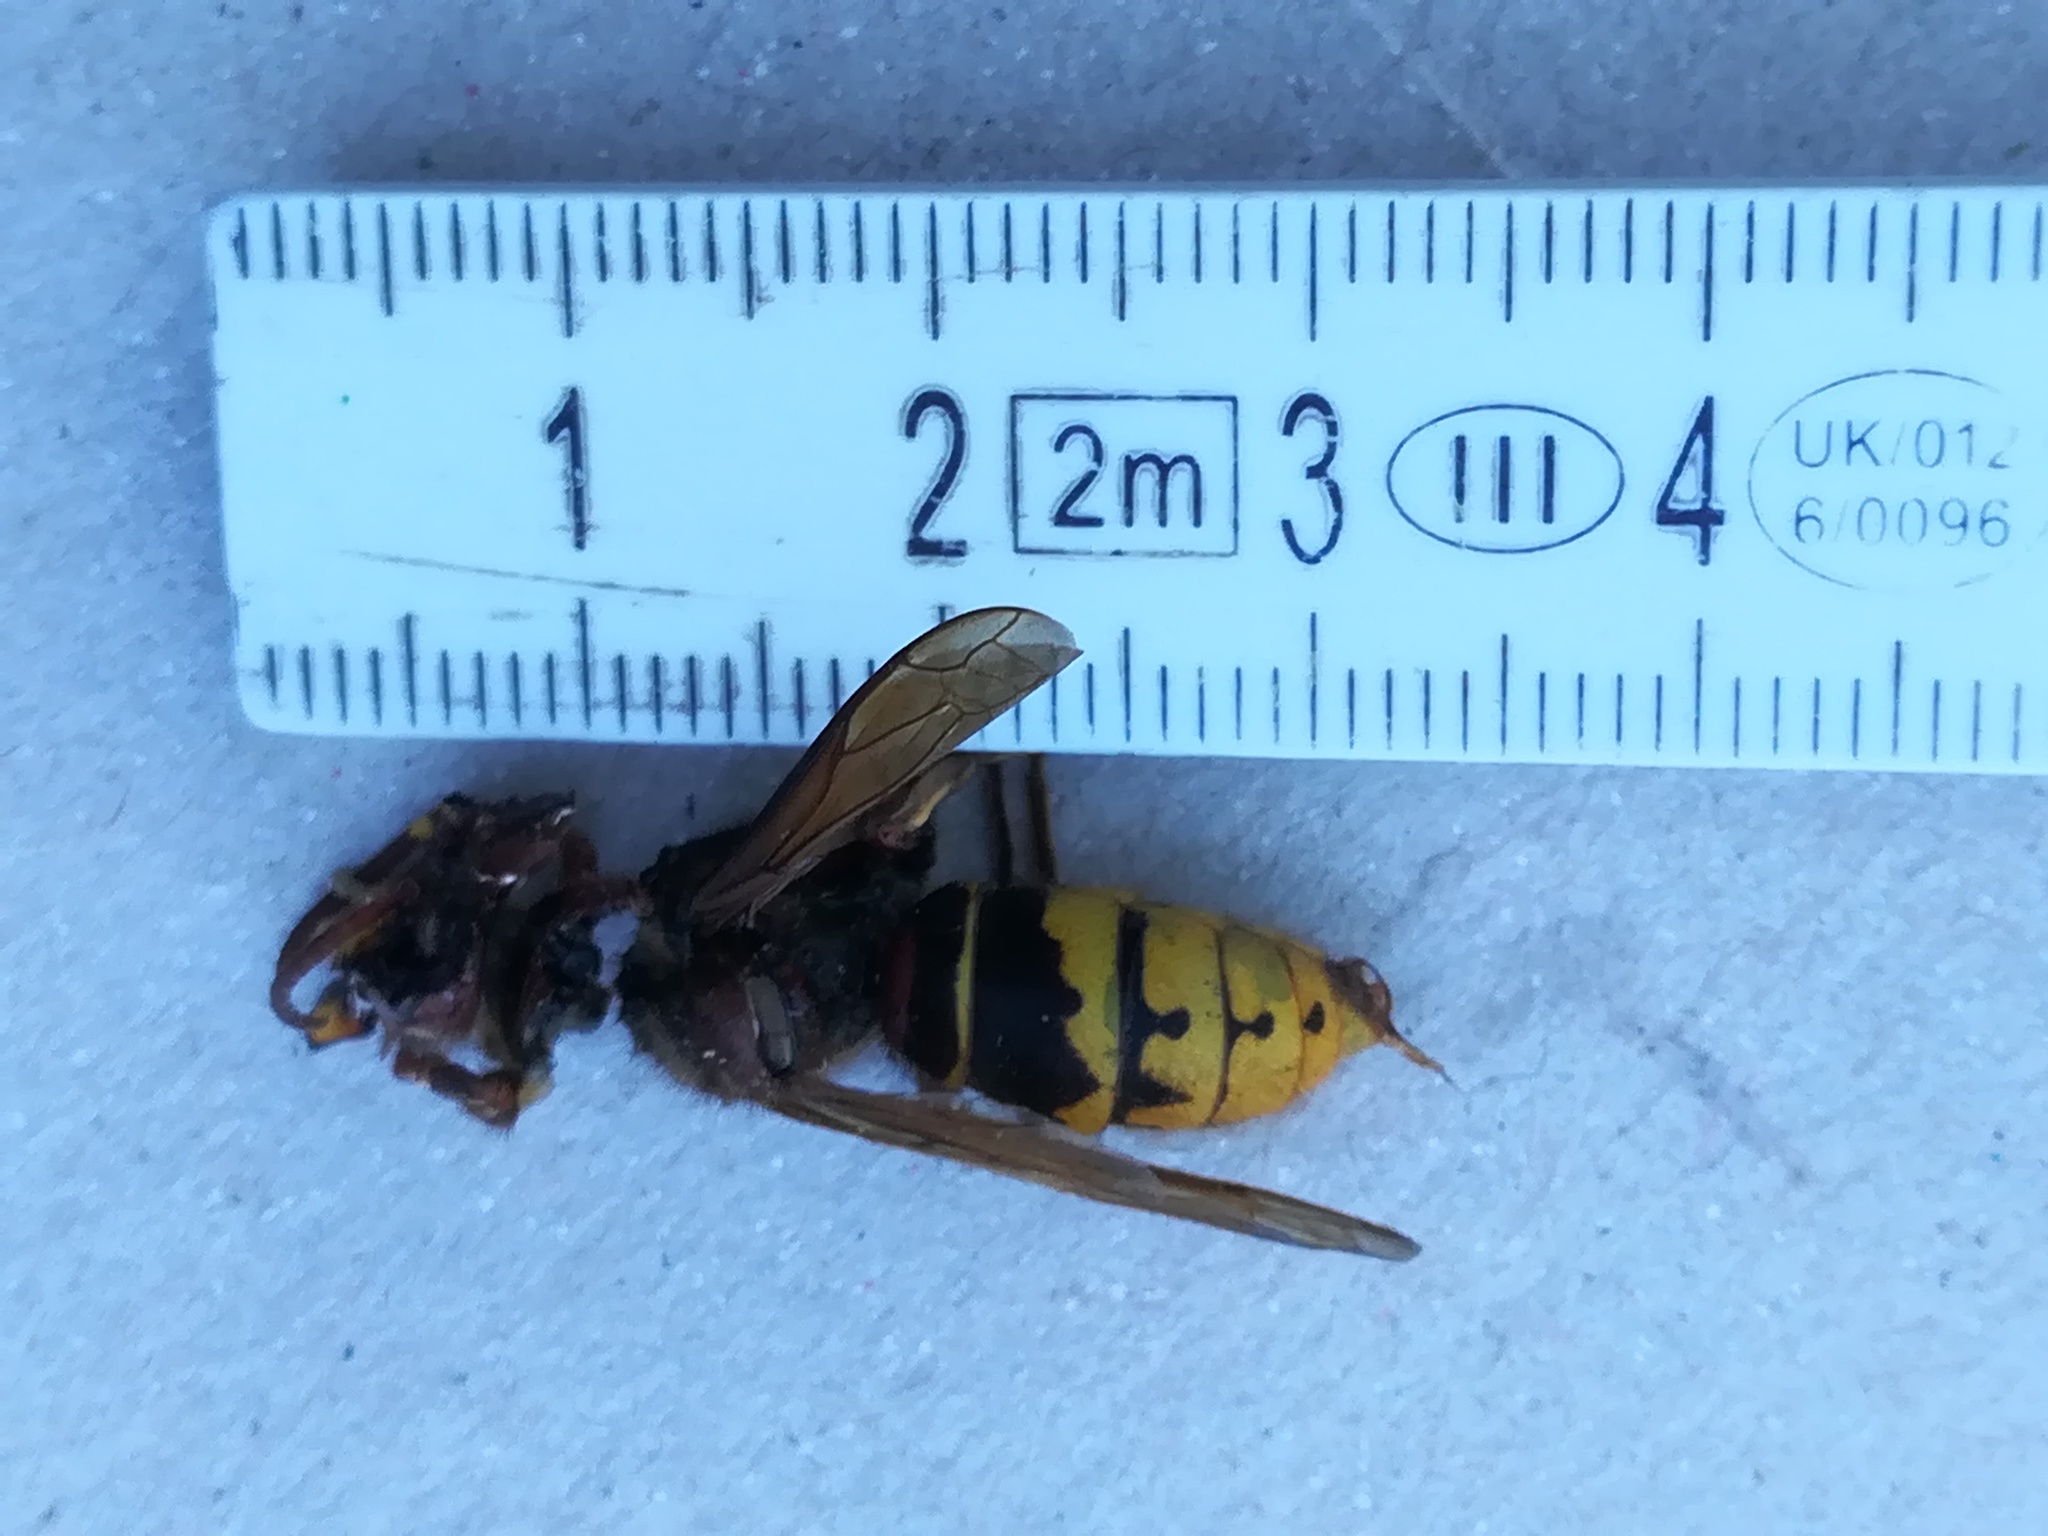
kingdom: Animalia
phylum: Arthropoda
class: Insecta
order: Hymenoptera
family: Vespidae
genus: Vespa
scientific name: Vespa crabro
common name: Hornet
